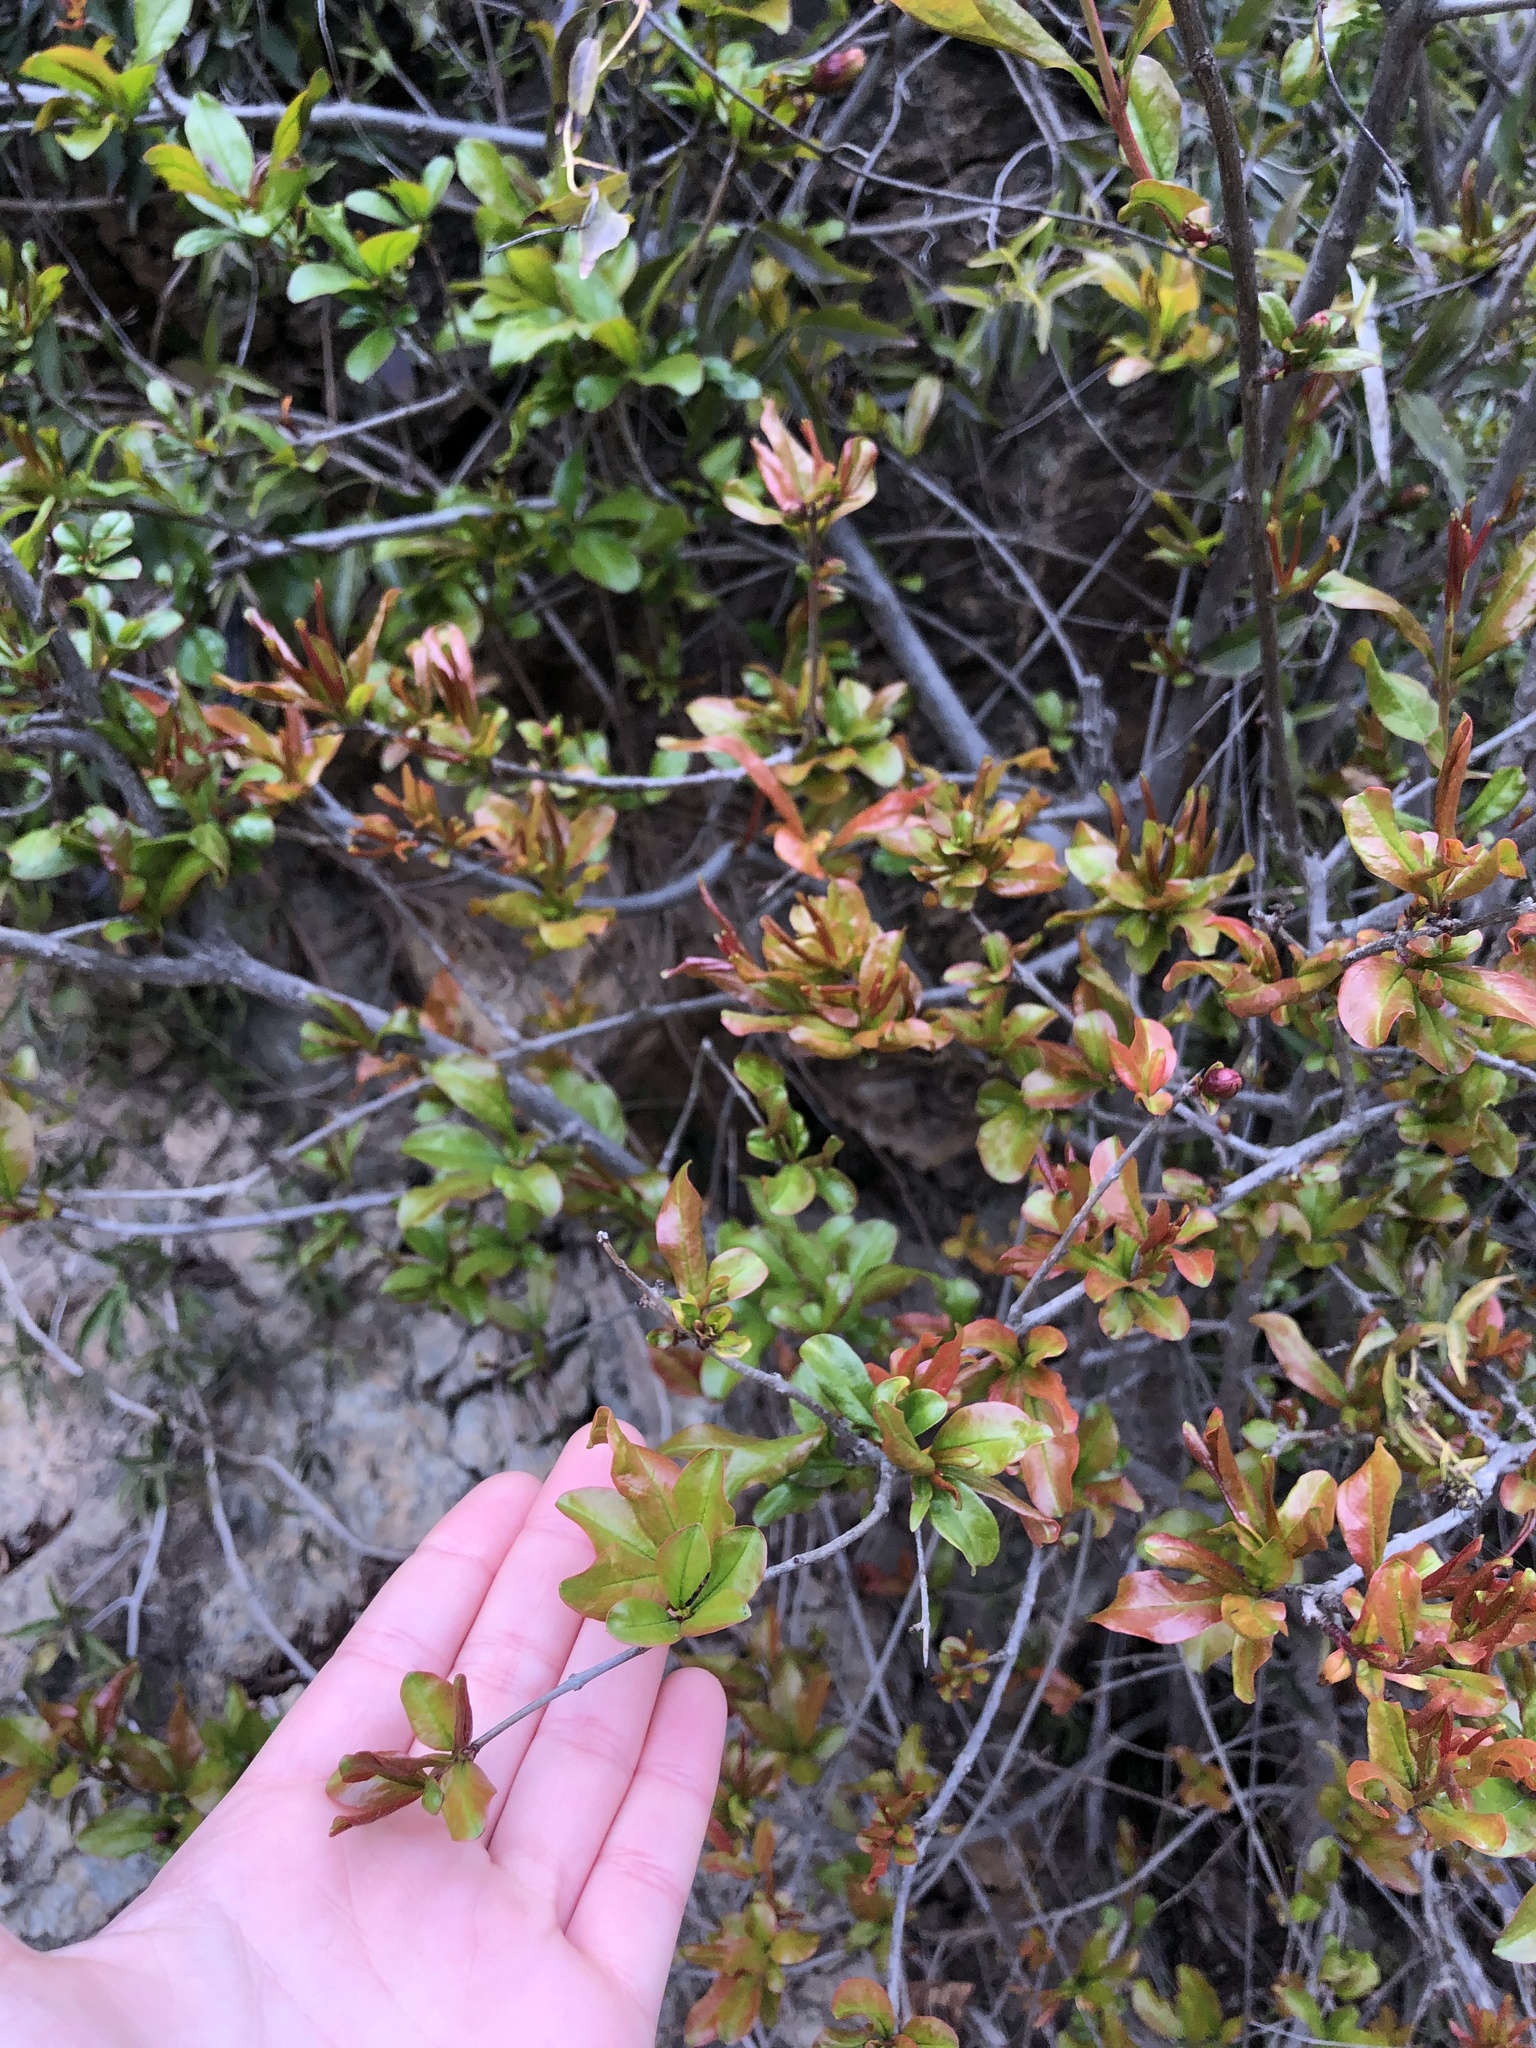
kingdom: Plantae
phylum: Tracheophyta
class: Magnoliopsida
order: Myrtales
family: Lythraceae
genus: Punica
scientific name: Punica granatum
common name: Pomegranate
